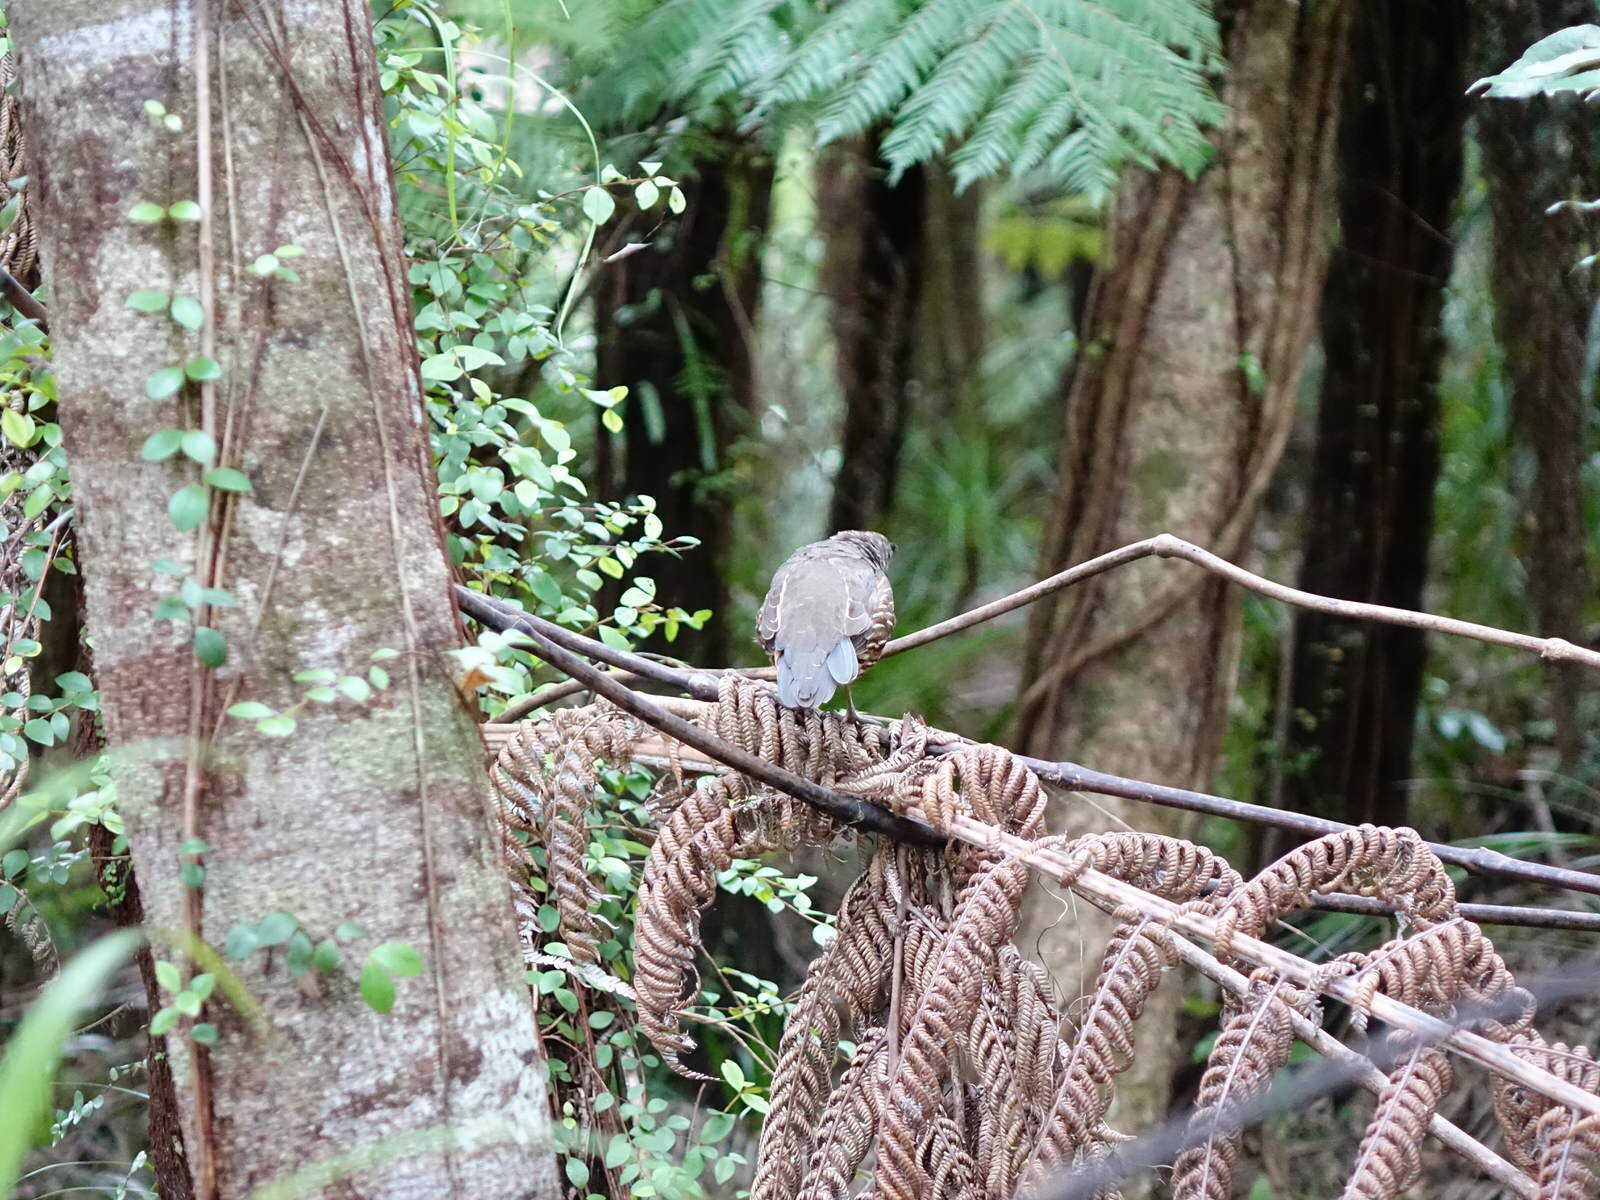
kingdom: Animalia
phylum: Chordata
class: Aves
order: Galliformes
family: Odontophoridae
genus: Callipepla
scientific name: Callipepla californica
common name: California quail
